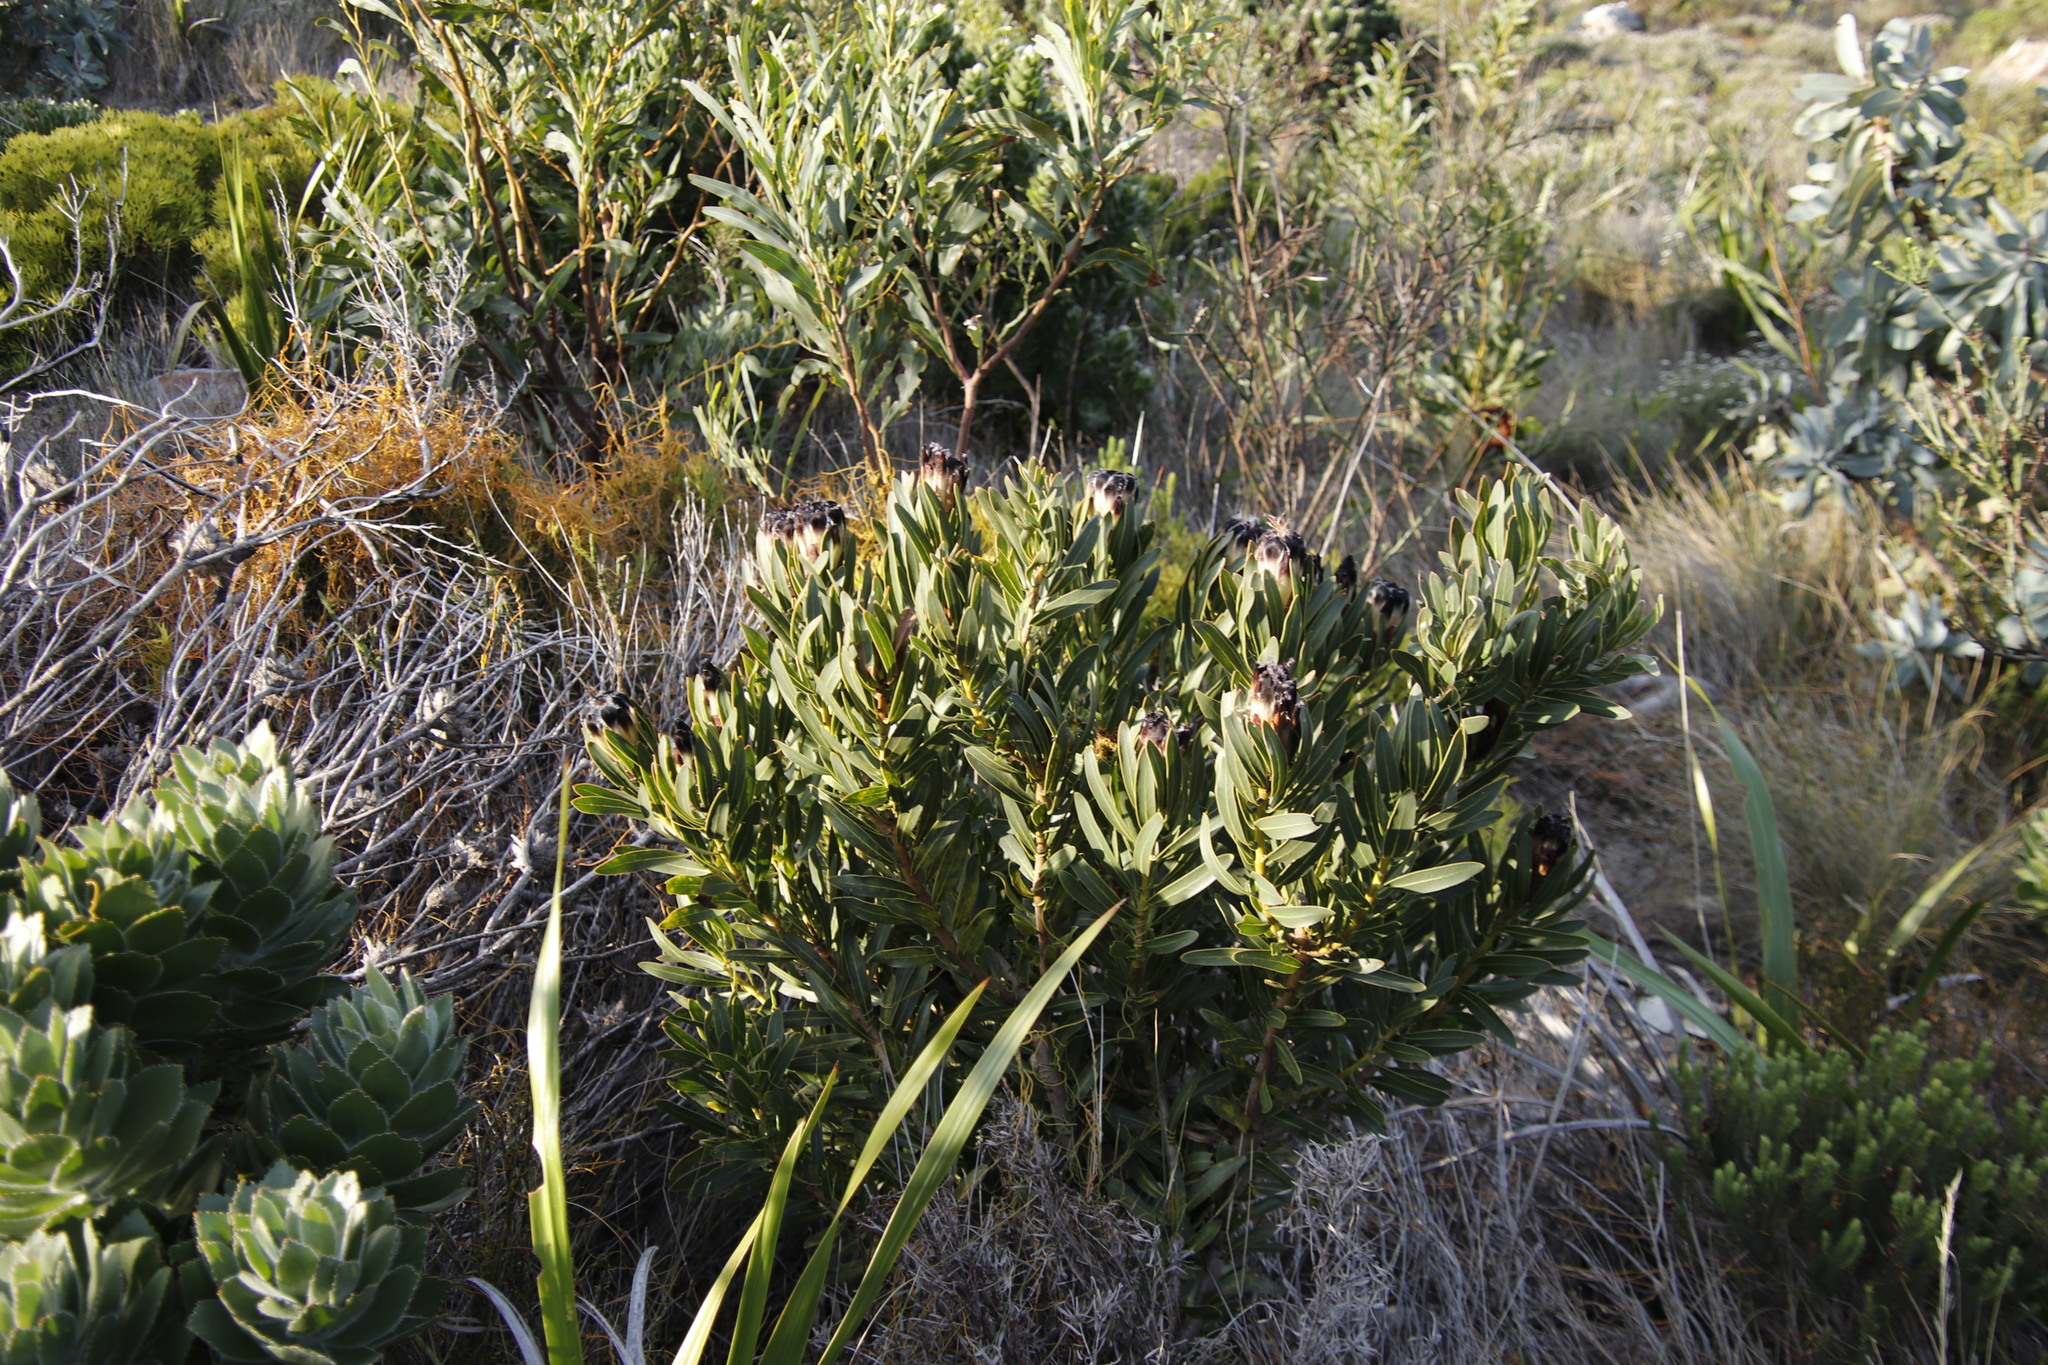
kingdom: Plantae
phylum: Tracheophyta
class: Magnoliopsida
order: Proteales
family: Proteaceae
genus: Protea
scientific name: Protea lepidocarpodendron
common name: Black-bearded protea
